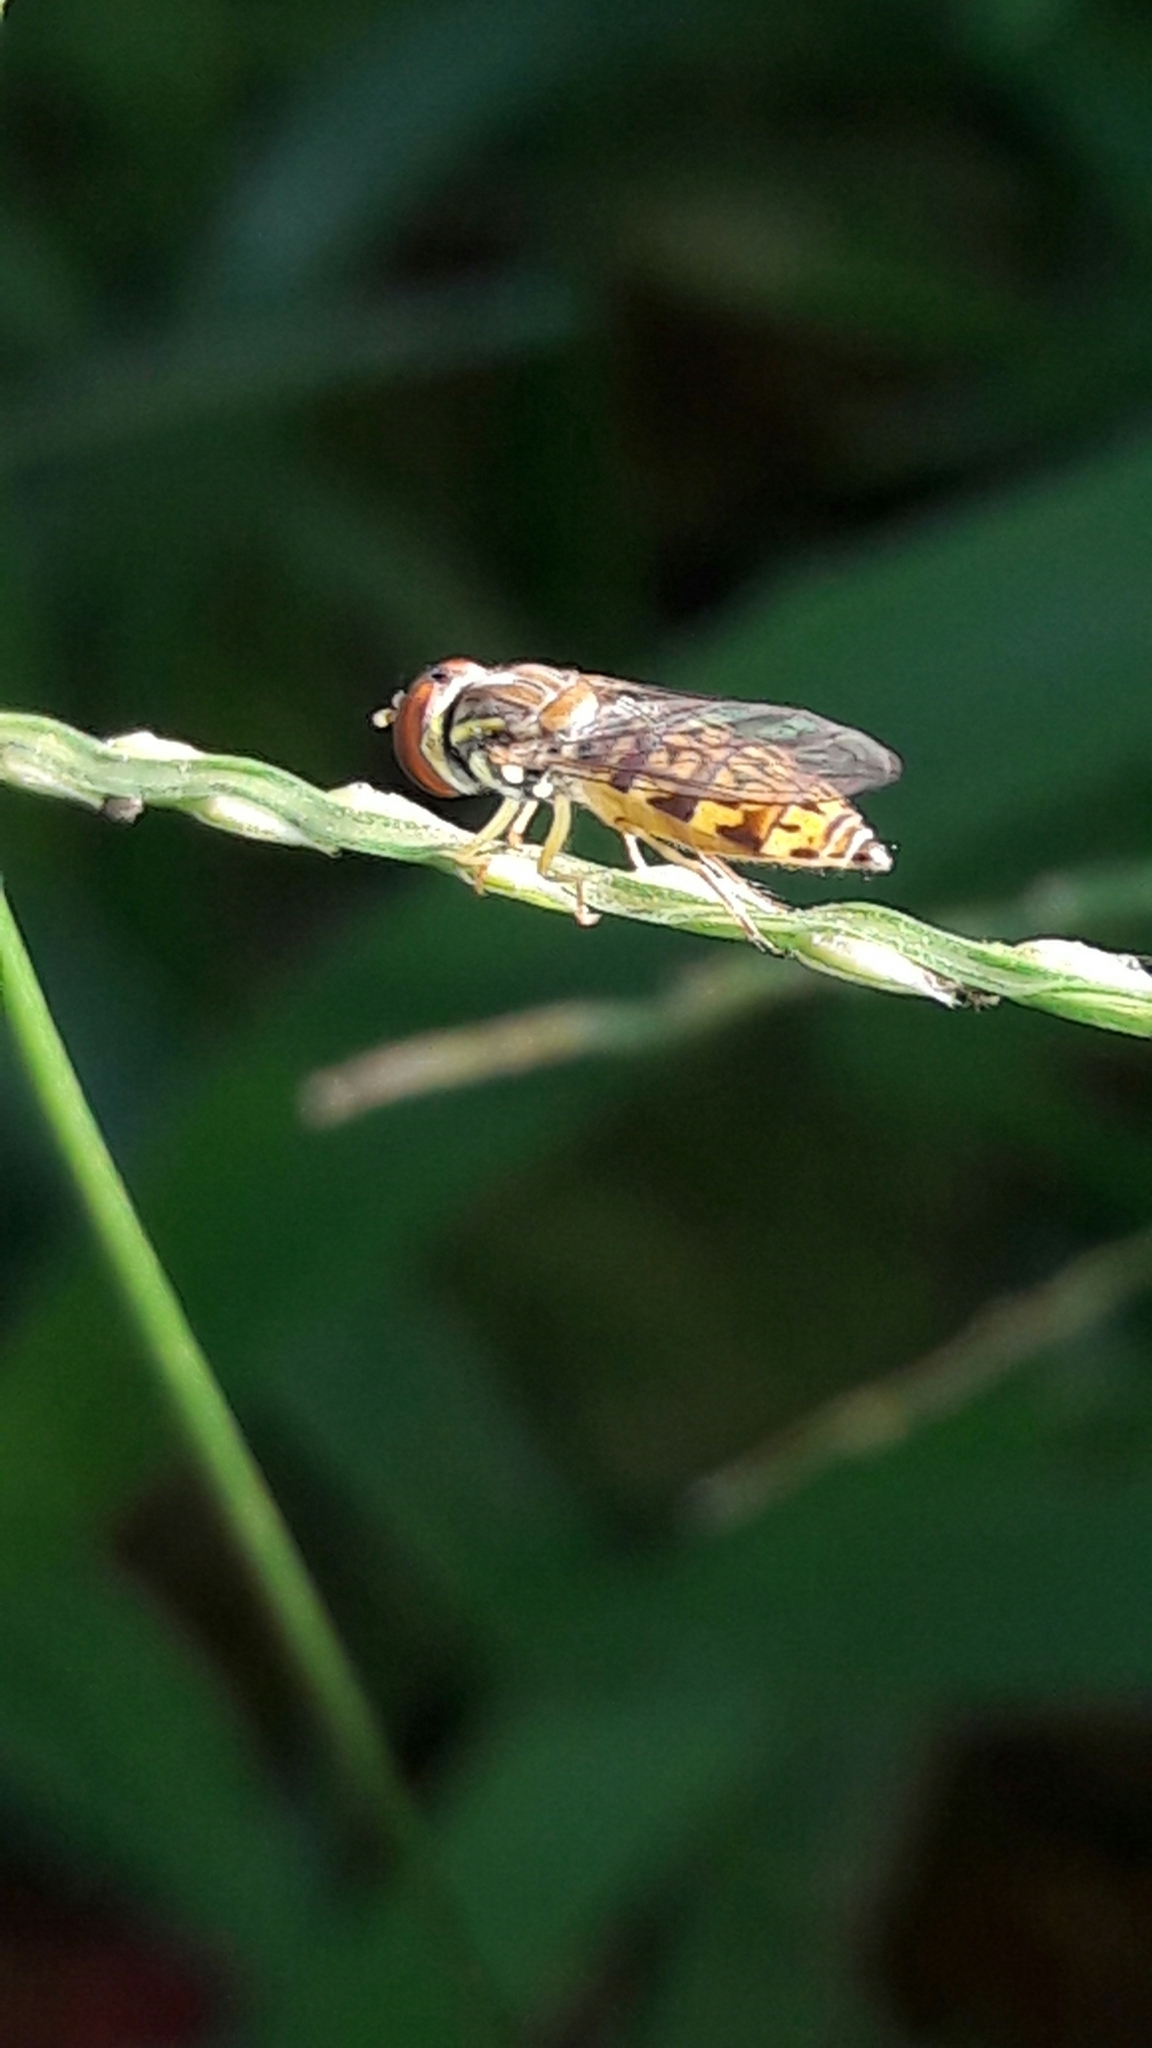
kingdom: Animalia
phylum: Arthropoda
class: Insecta
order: Diptera
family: Syrphidae
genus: Toxomerus
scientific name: Toxomerus
